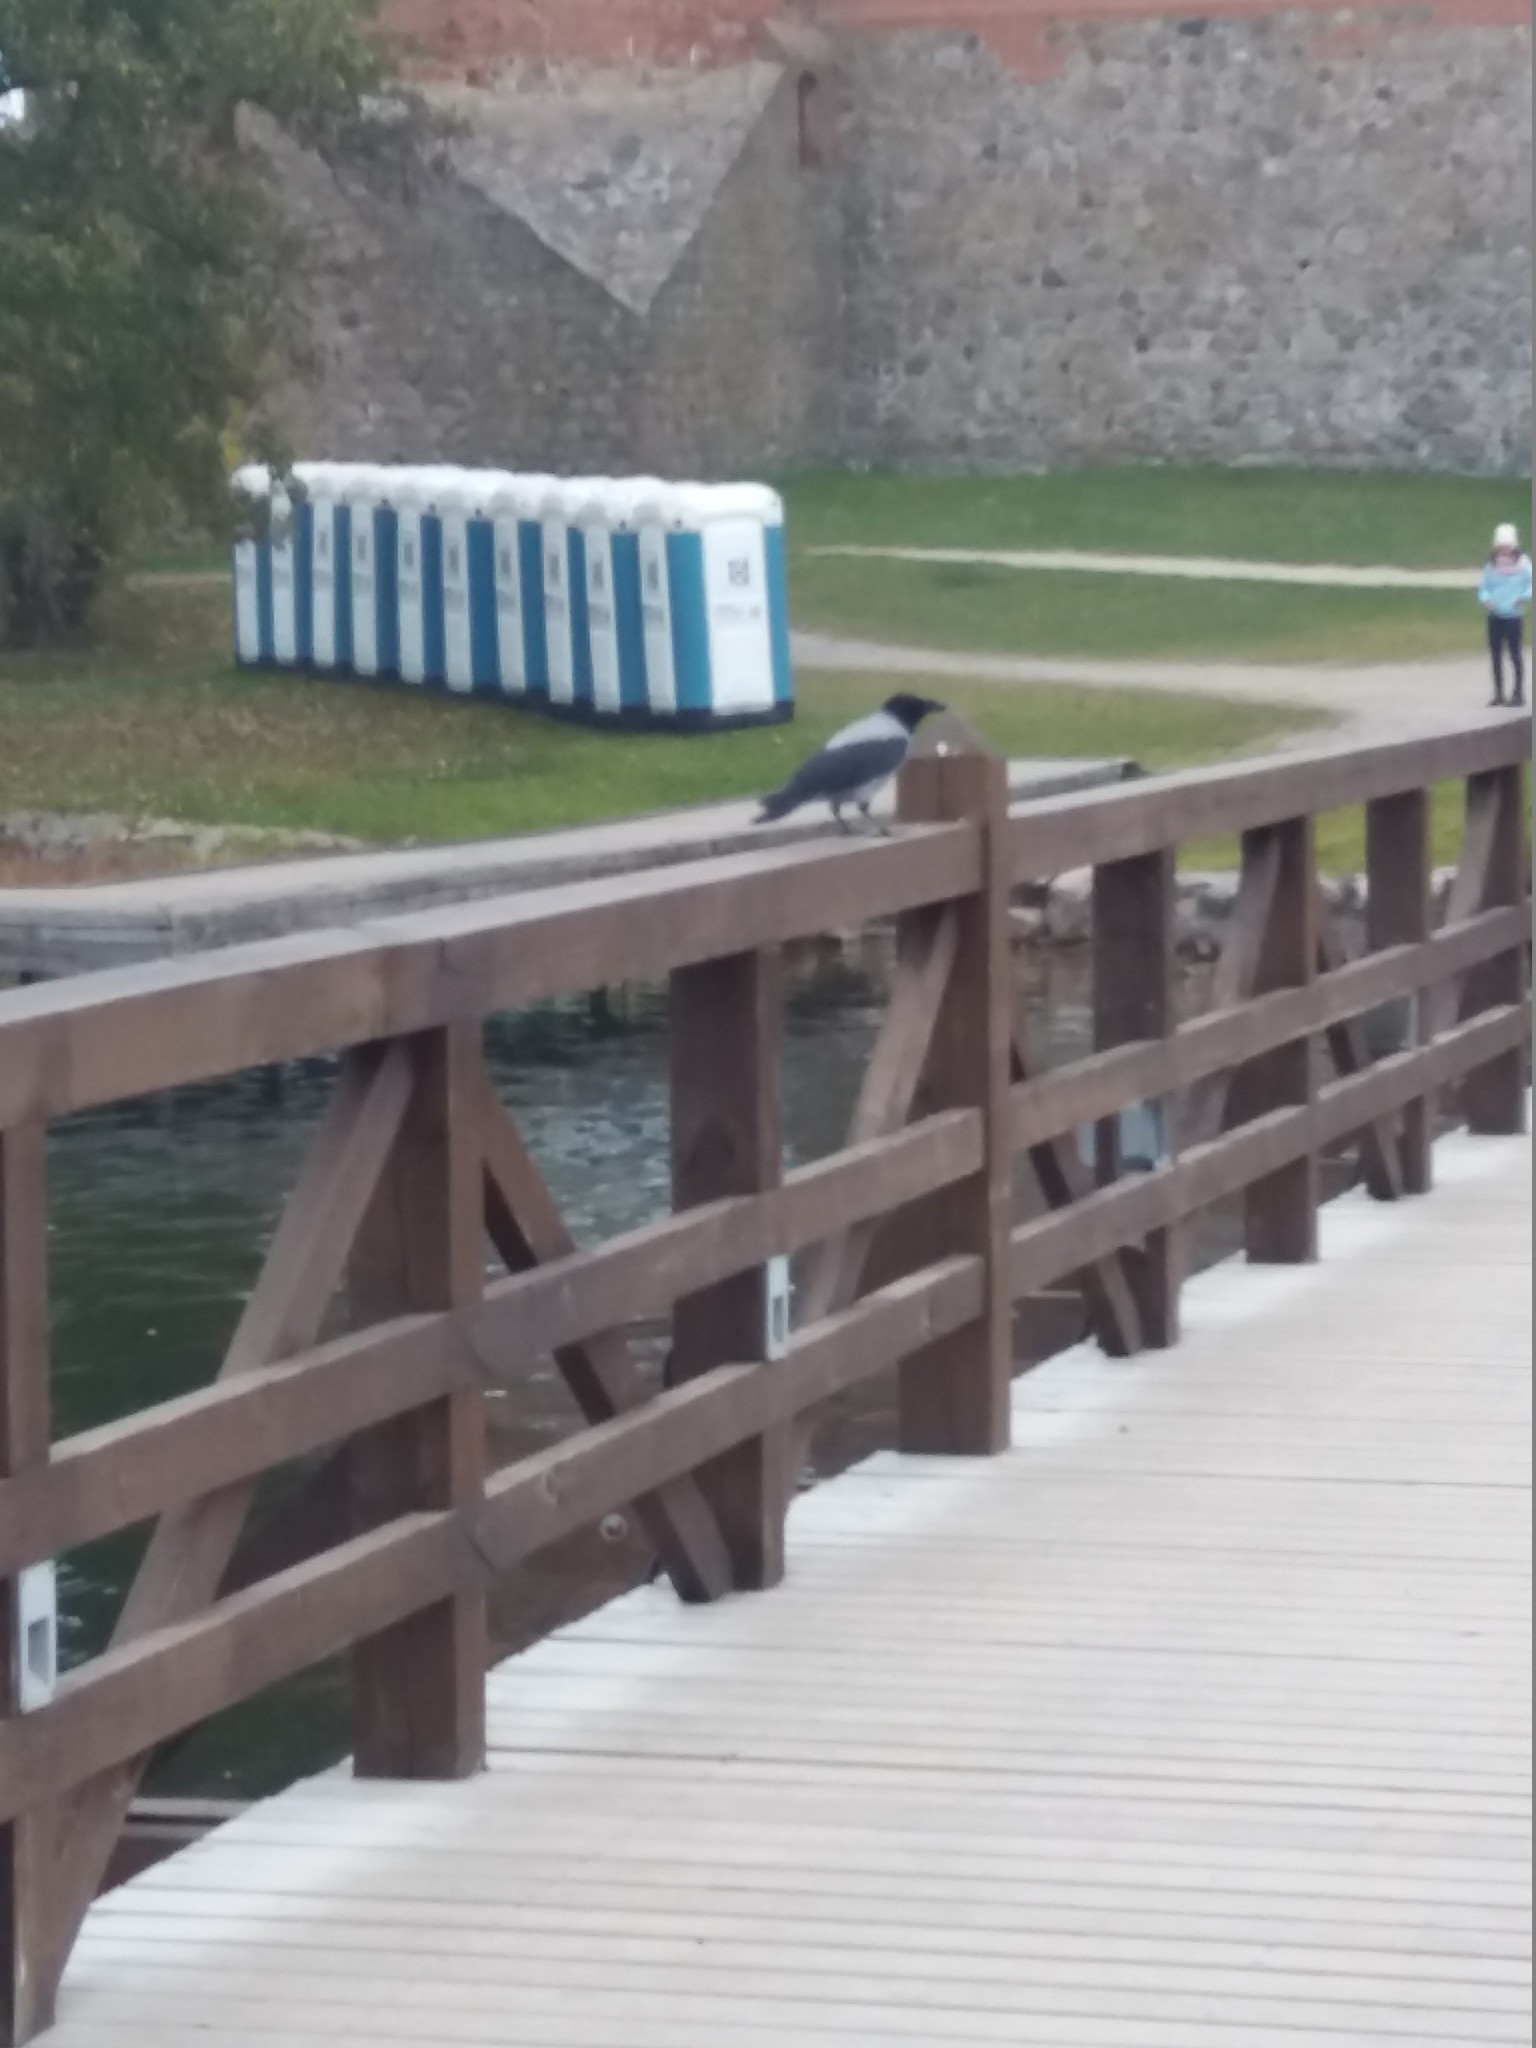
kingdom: Animalia
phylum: Chordata
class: Aves
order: Passeriformes
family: Corvidae
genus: Corvus
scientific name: Corvus cornix
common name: Hooded crow
